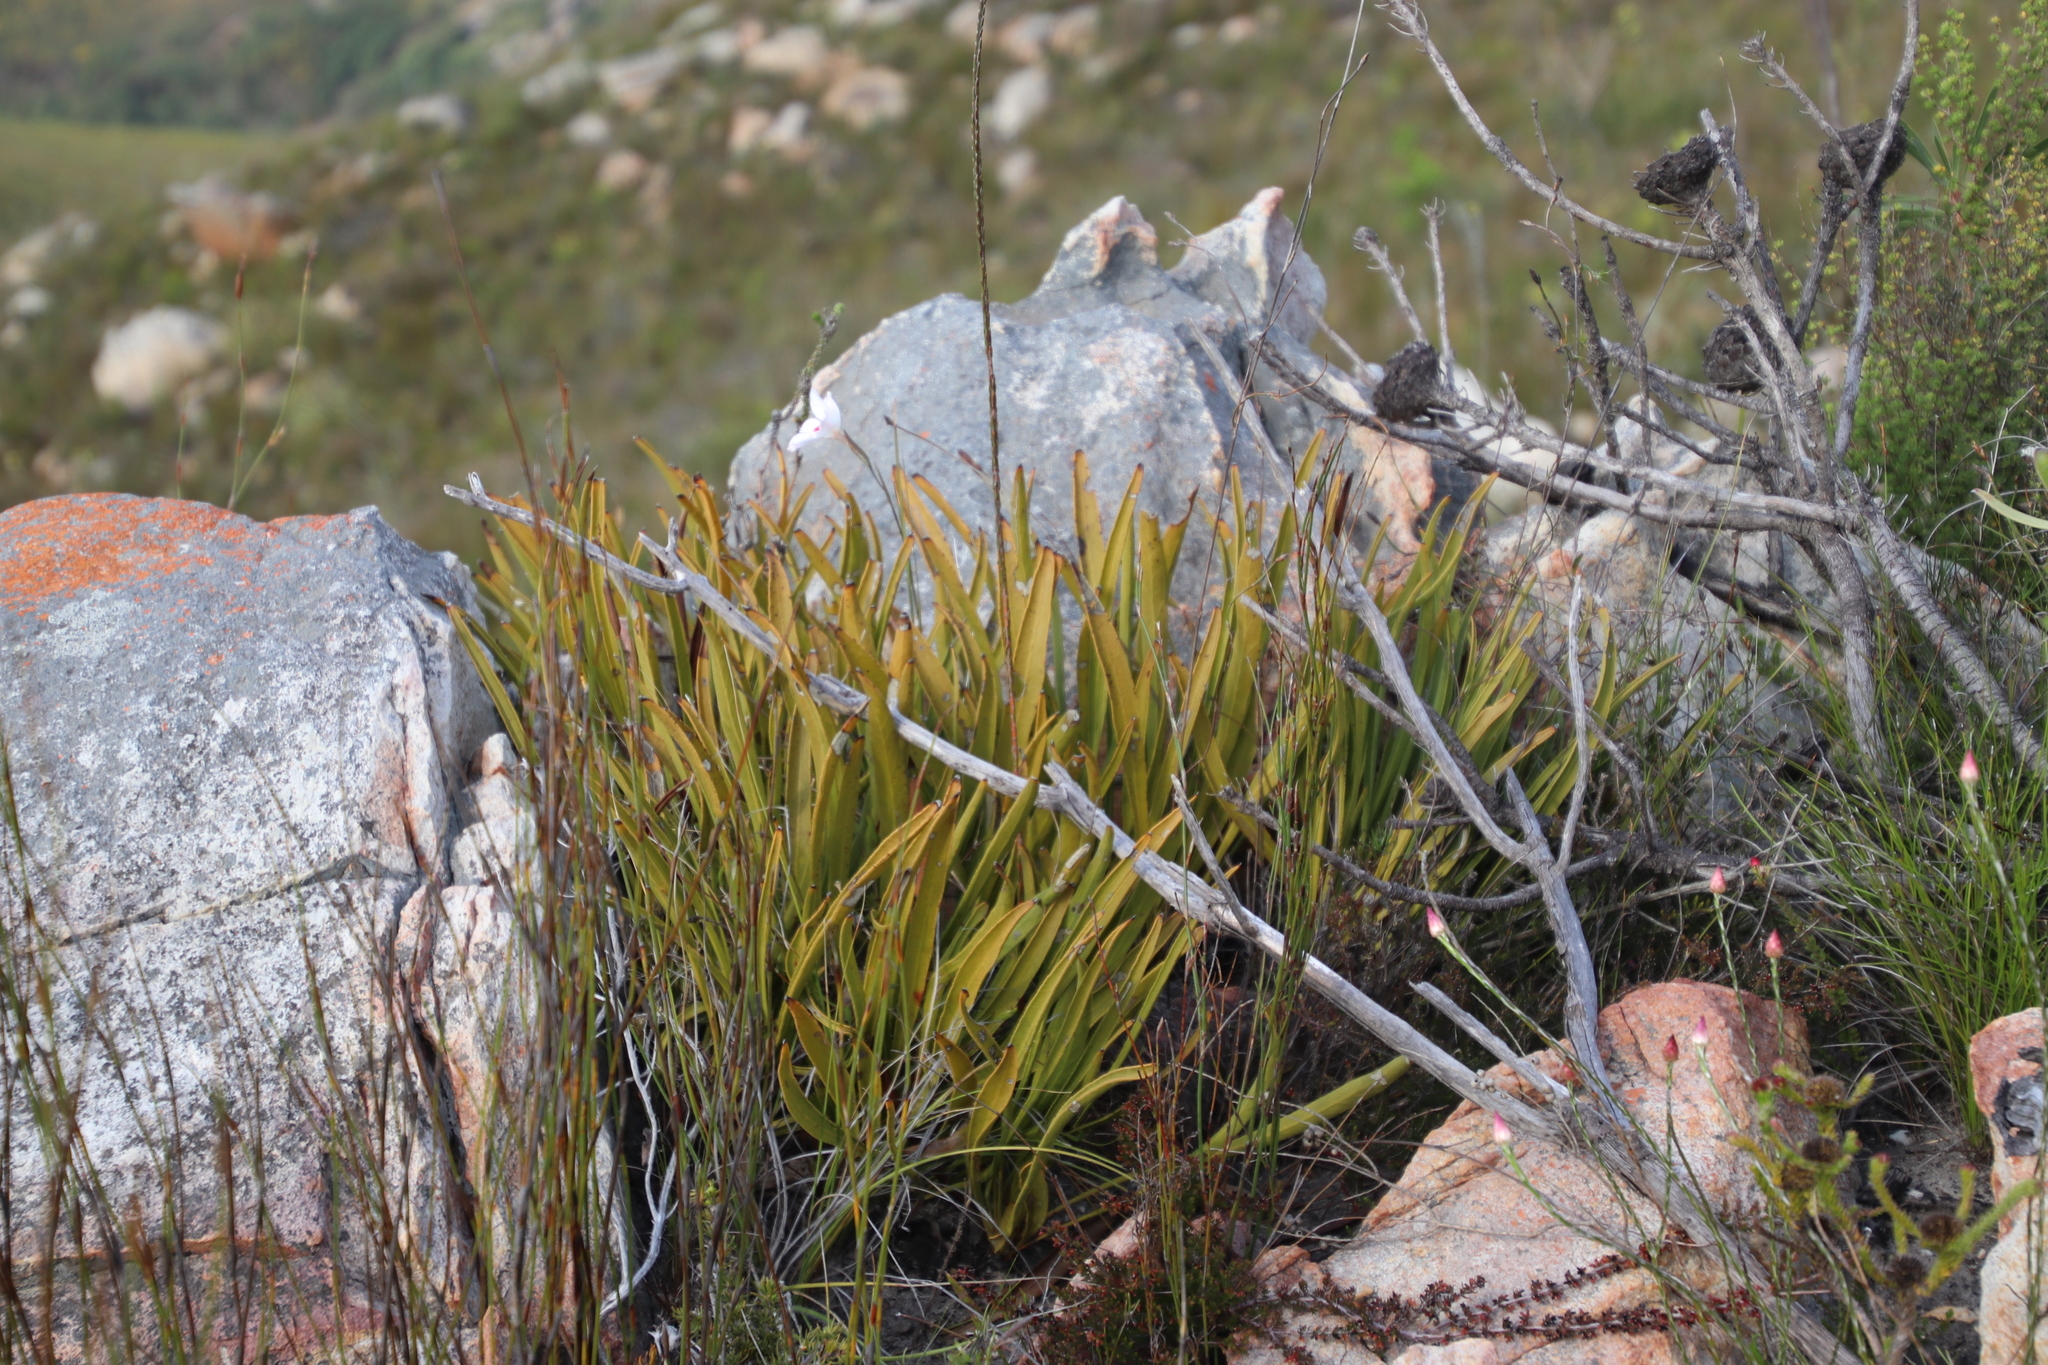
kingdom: Plantae
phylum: Tracheophyta
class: Magnoliopsida
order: Proteales
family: Proteaceae
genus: Protea
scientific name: Protea scabra
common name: Sandpaper-leaf sugarbush
